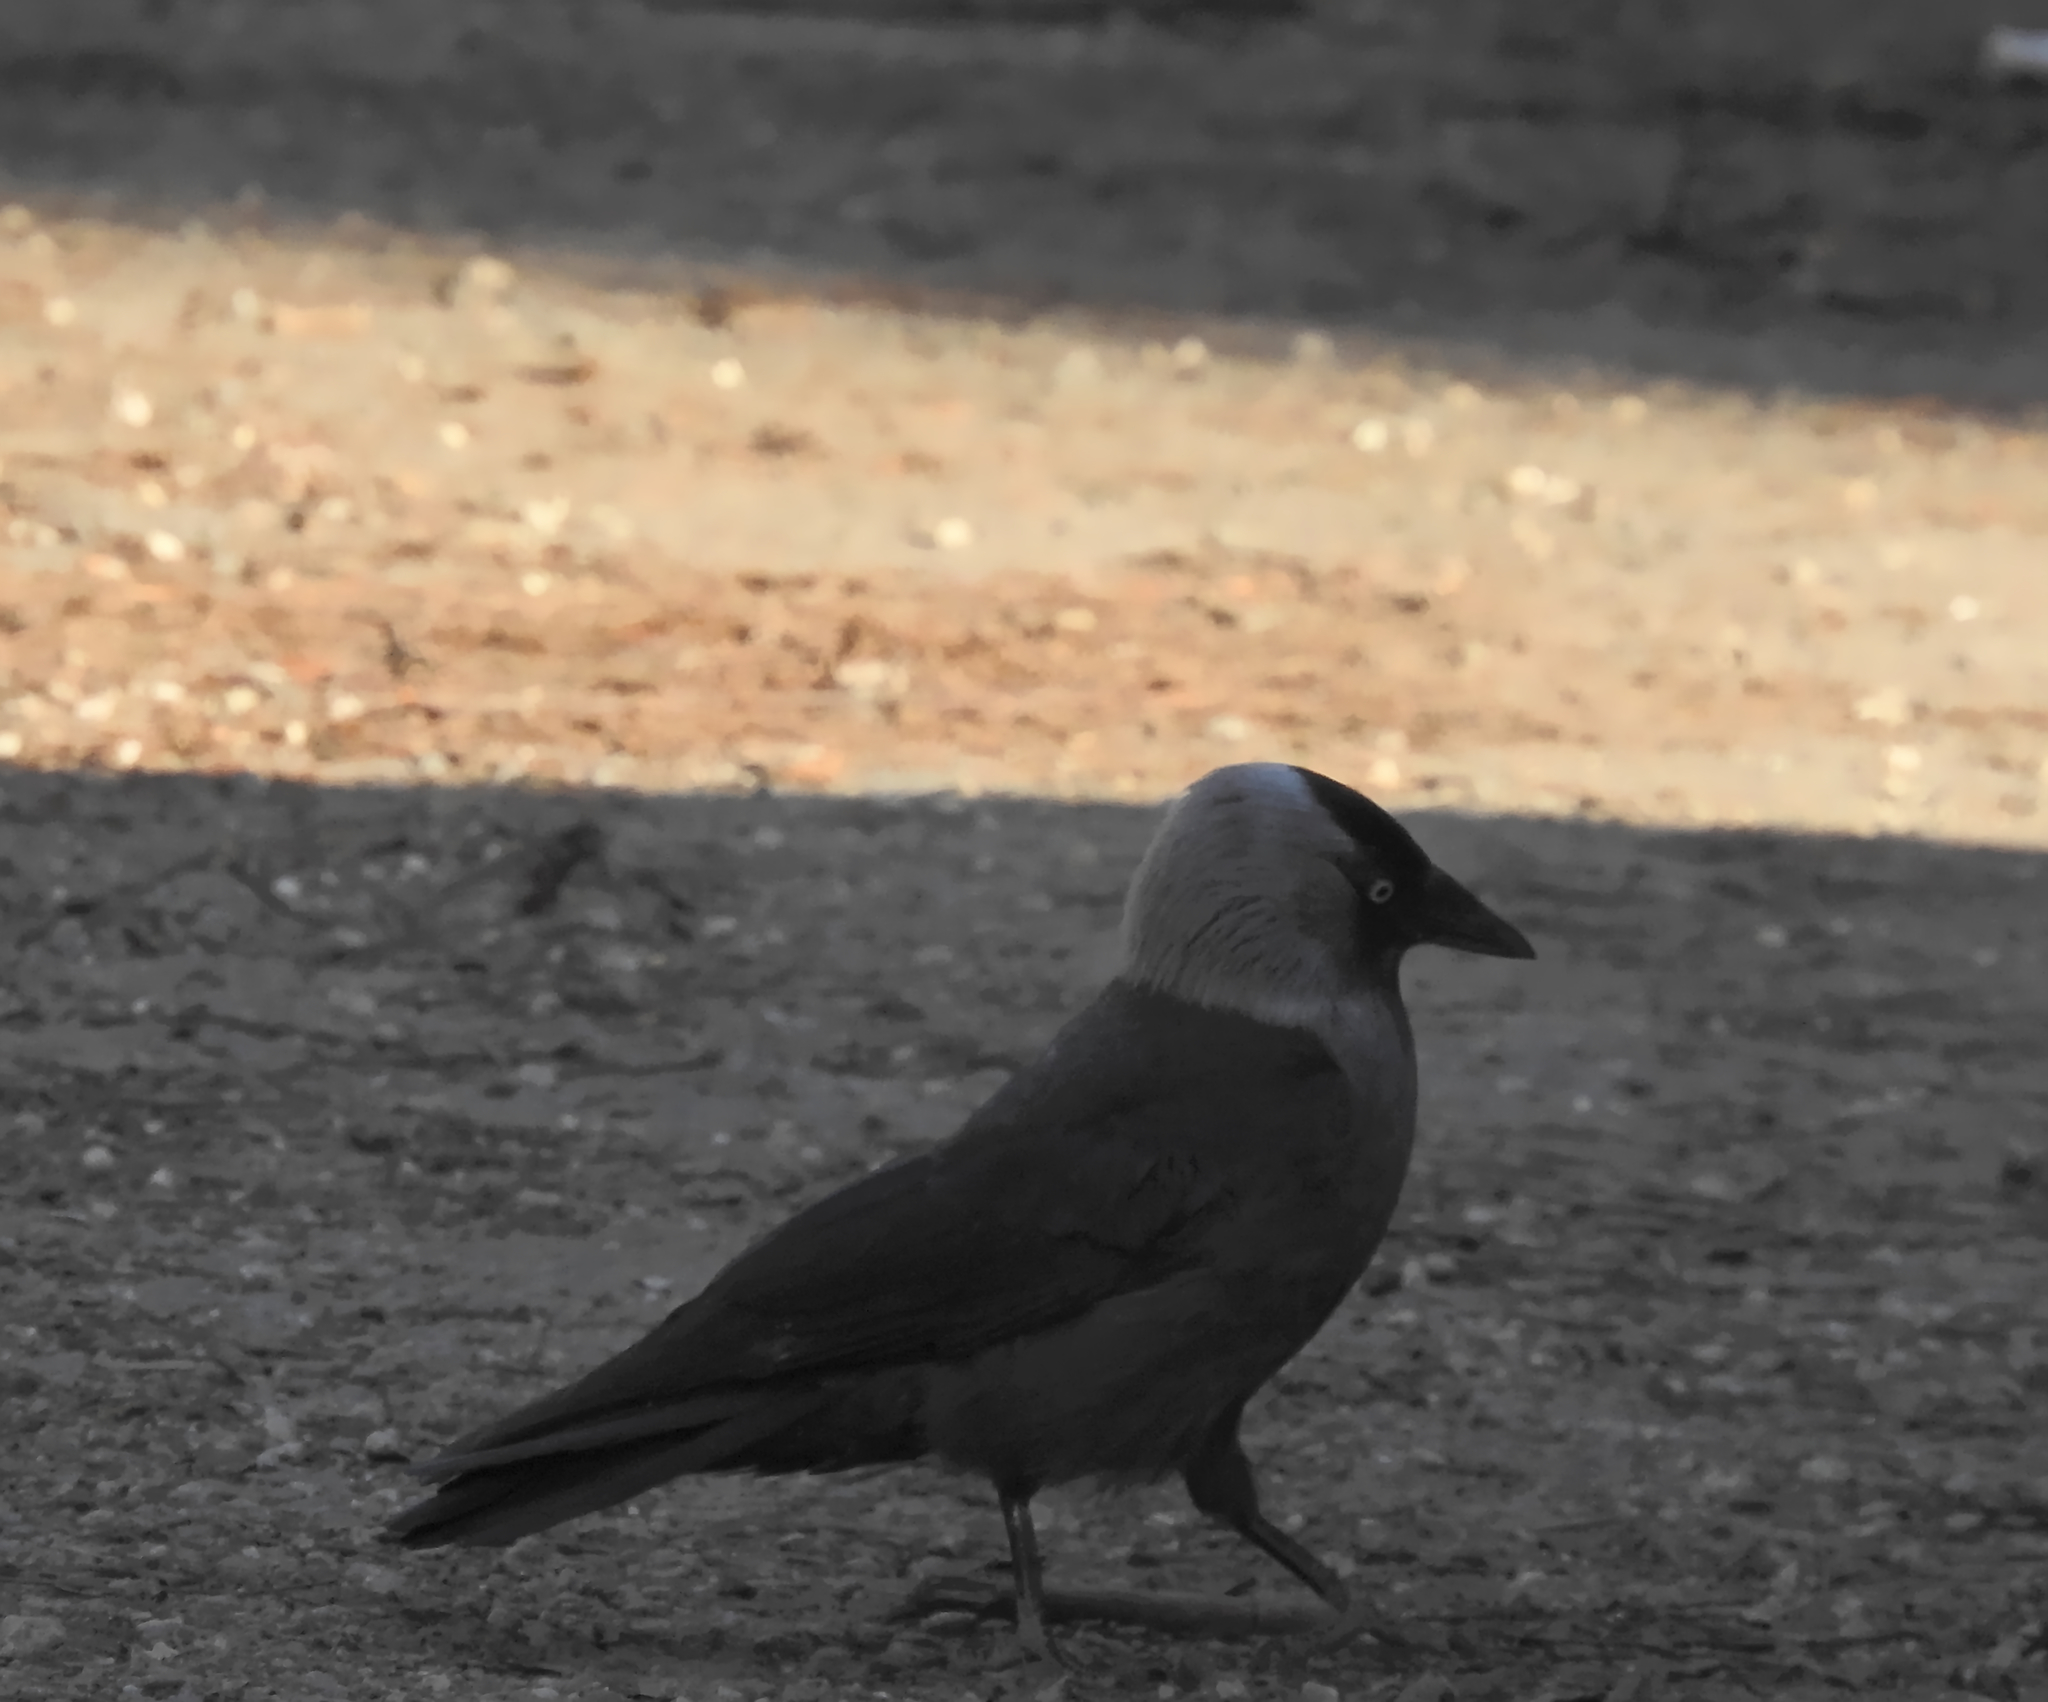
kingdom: Animalia
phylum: Chordata
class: Aves
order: Passeriformes
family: Corvidae
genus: Coloeus
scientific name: Coloeus monedula
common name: Western jackdaw
